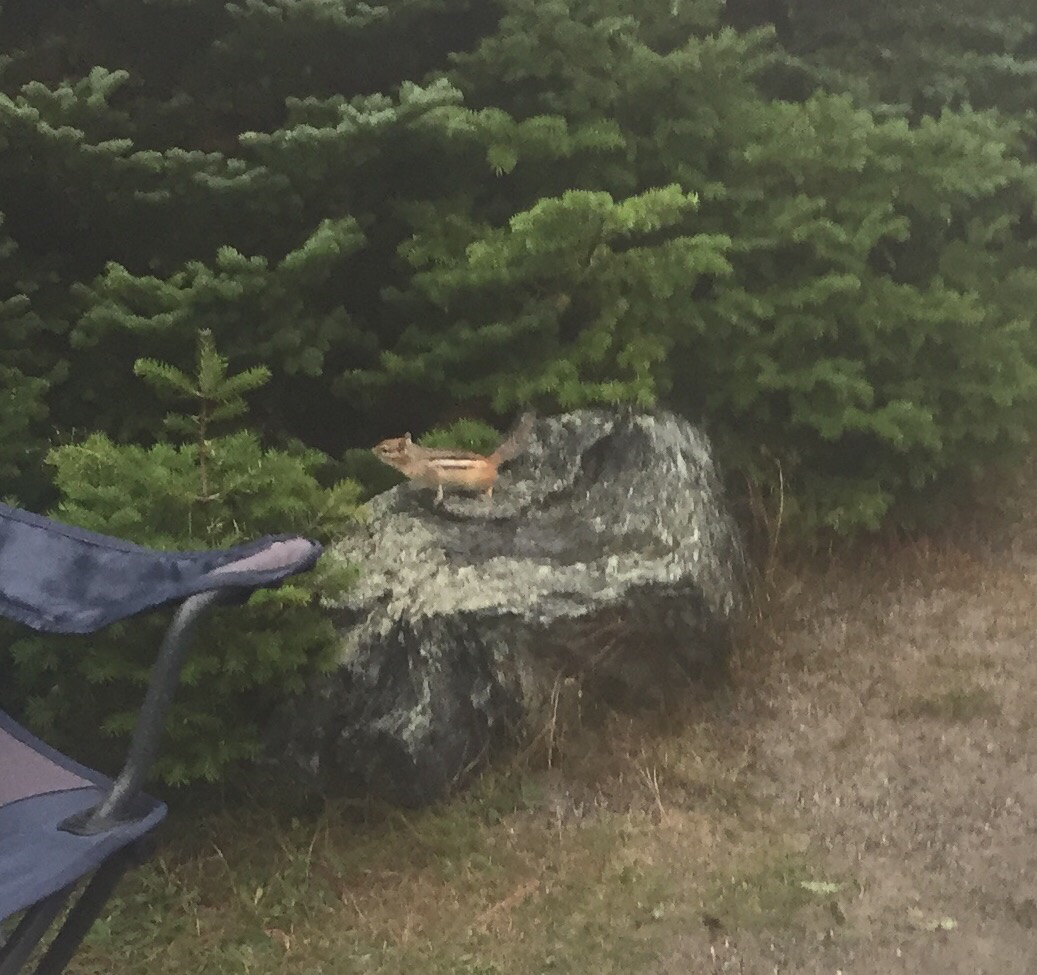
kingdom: Animalia
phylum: Chordata
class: Mammalia
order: Rodentia
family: Sciuridae
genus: Tamias
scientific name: Tamias striatus
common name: Eastern chipmunk
